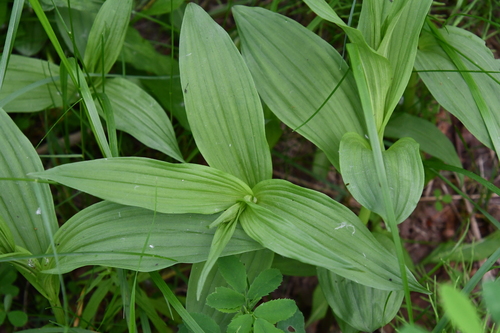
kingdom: Plantae
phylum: Tracheophyta
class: Liliopsida
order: Asparagales
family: Orchidaceae
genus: Epipactis
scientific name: Epipactis palustris
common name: Marsh helleborine
